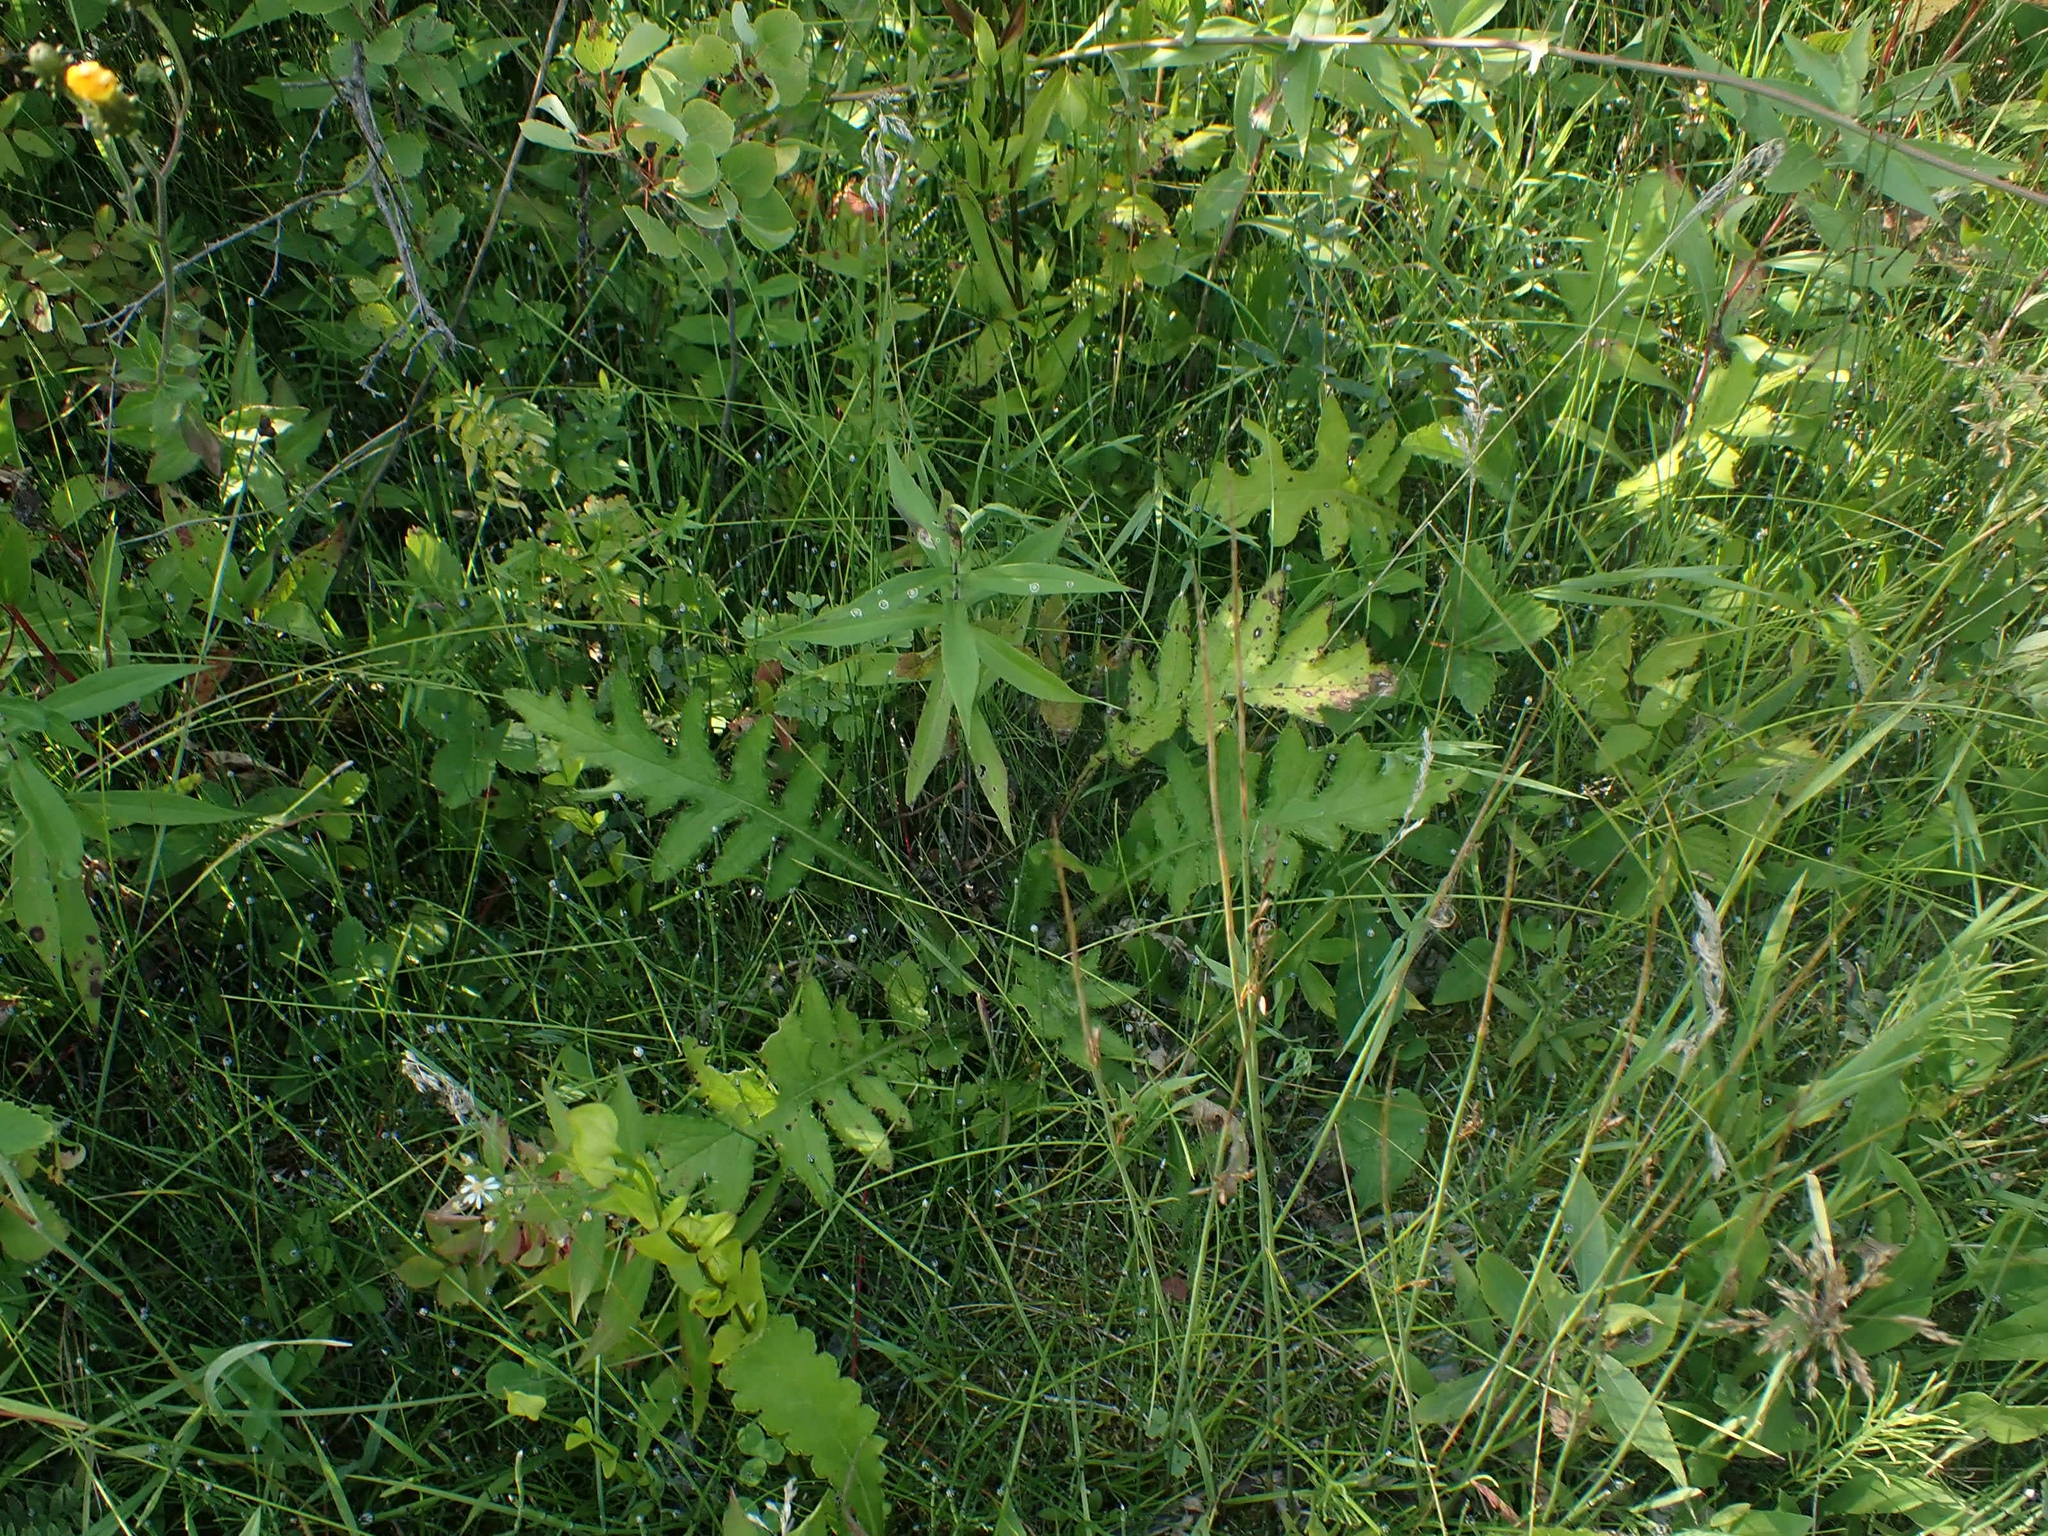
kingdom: Plantae
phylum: Tracheophyta
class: Magnoliopsida
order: Asterales
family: Asteraceae
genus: Cirsium
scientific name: Cirsium muticum
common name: Dunce-nettle
